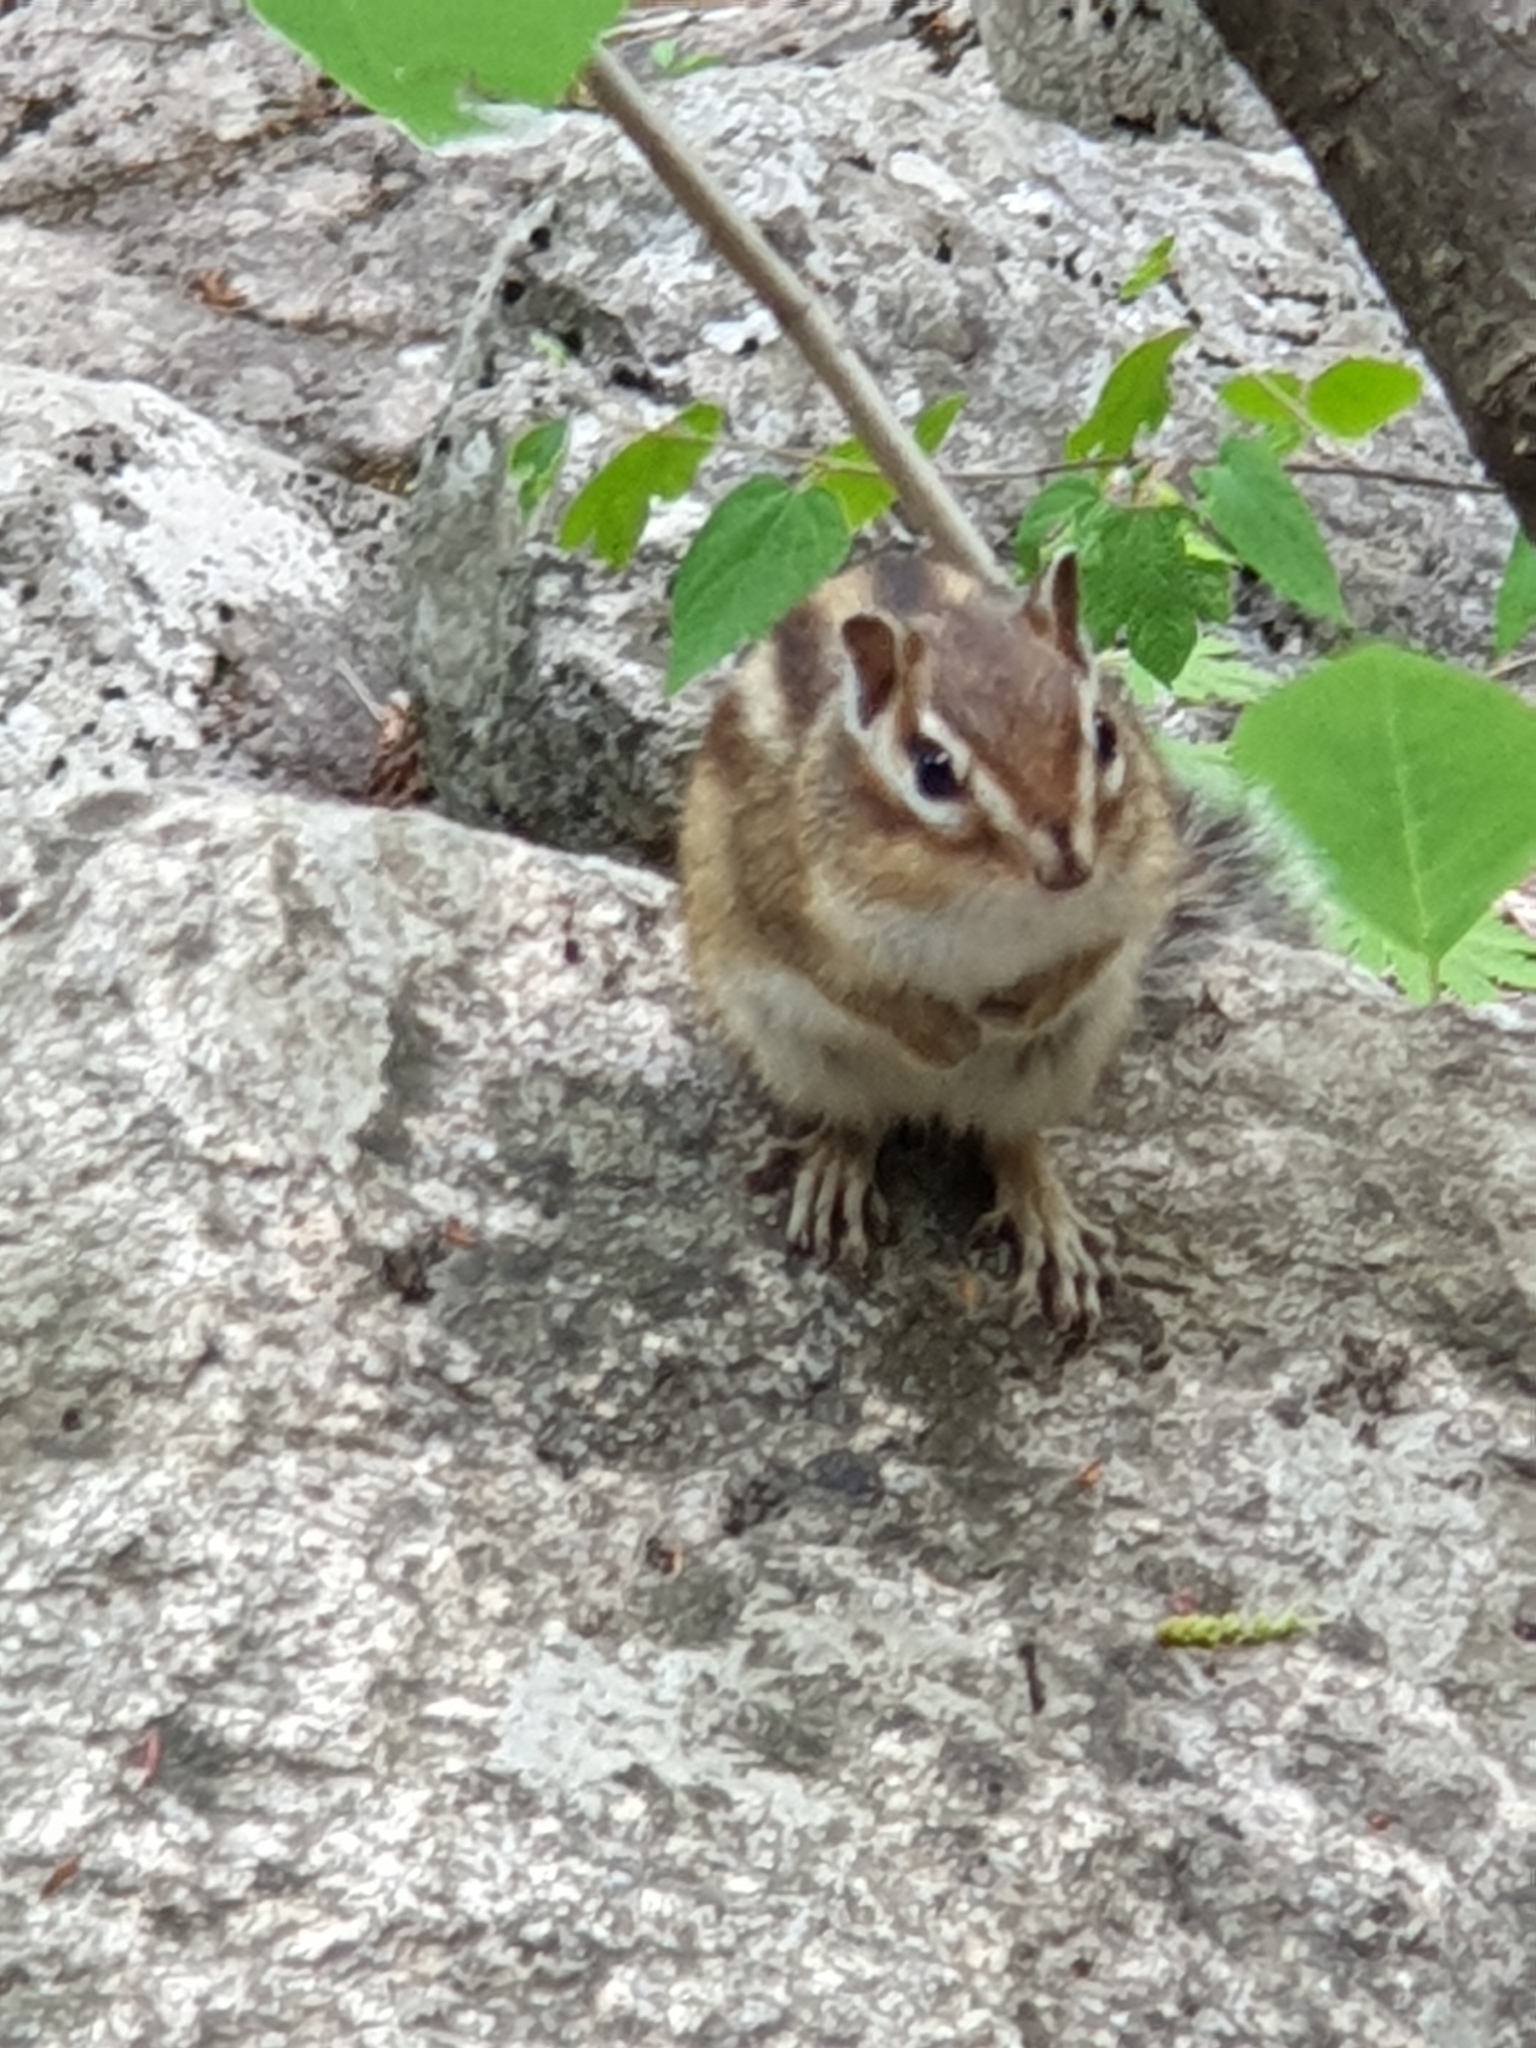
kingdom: Animalia
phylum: Chordata
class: Mammalia
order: Rodentia
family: Sciuridae
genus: Tamias
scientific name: Tamias sibiricus
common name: Siberian chipmunk
